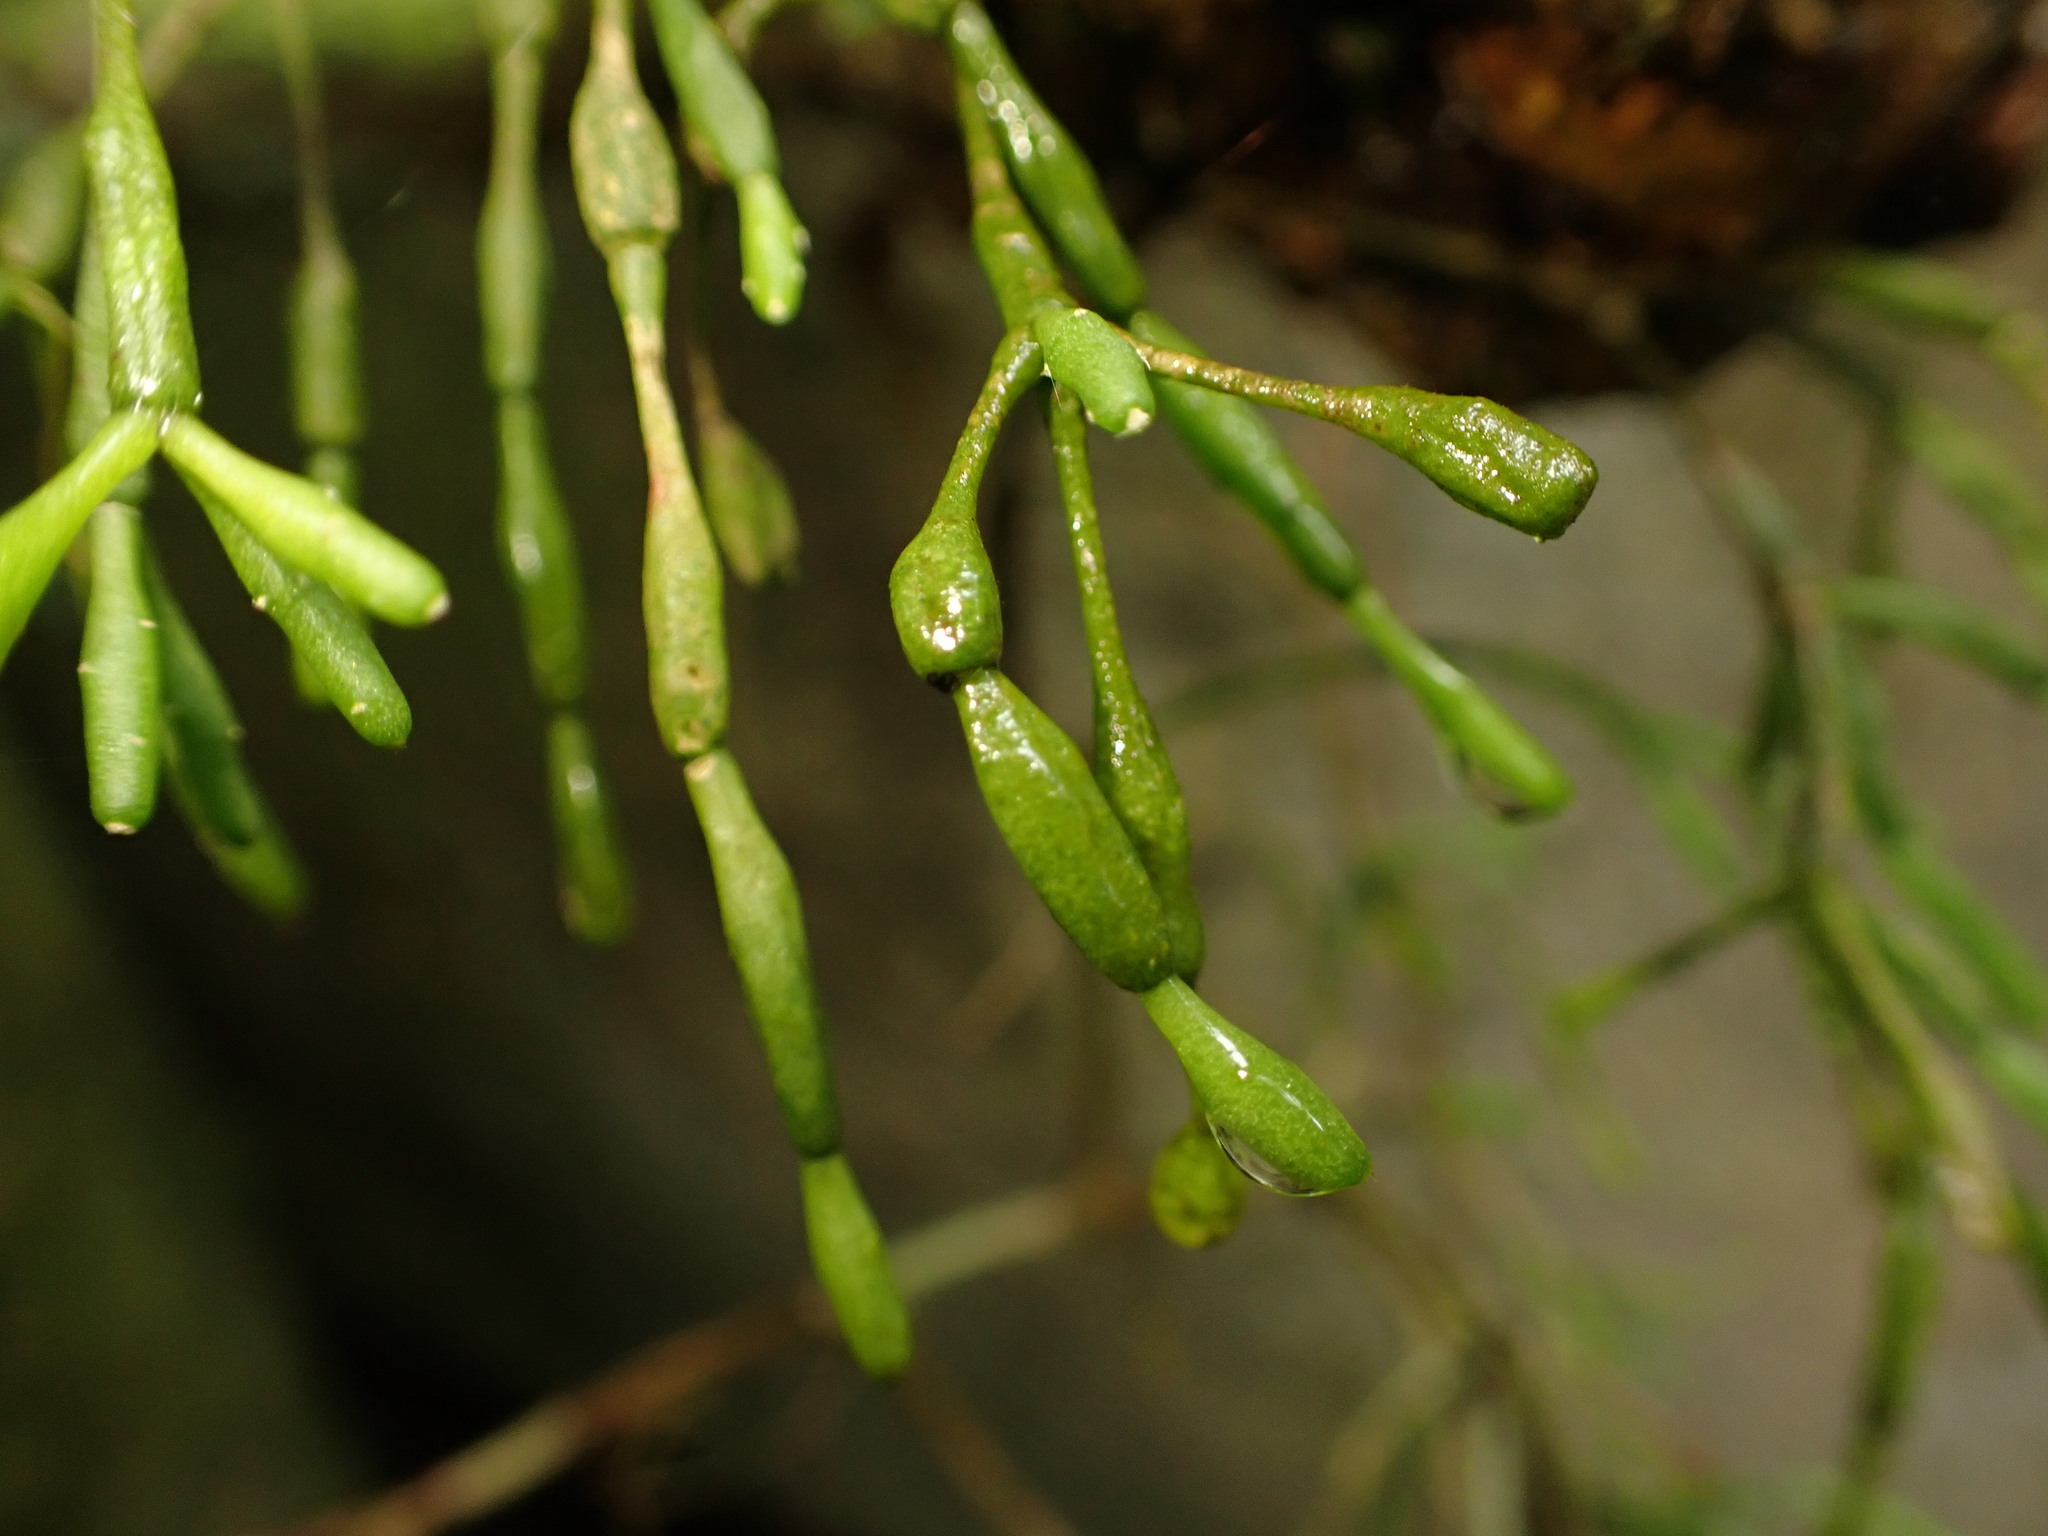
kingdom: Plantae
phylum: Tracheophyta
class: Magnoliopsida
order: Caryophyllales
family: Cactaceae
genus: Hatiora
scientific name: Hatiora salicornoides
